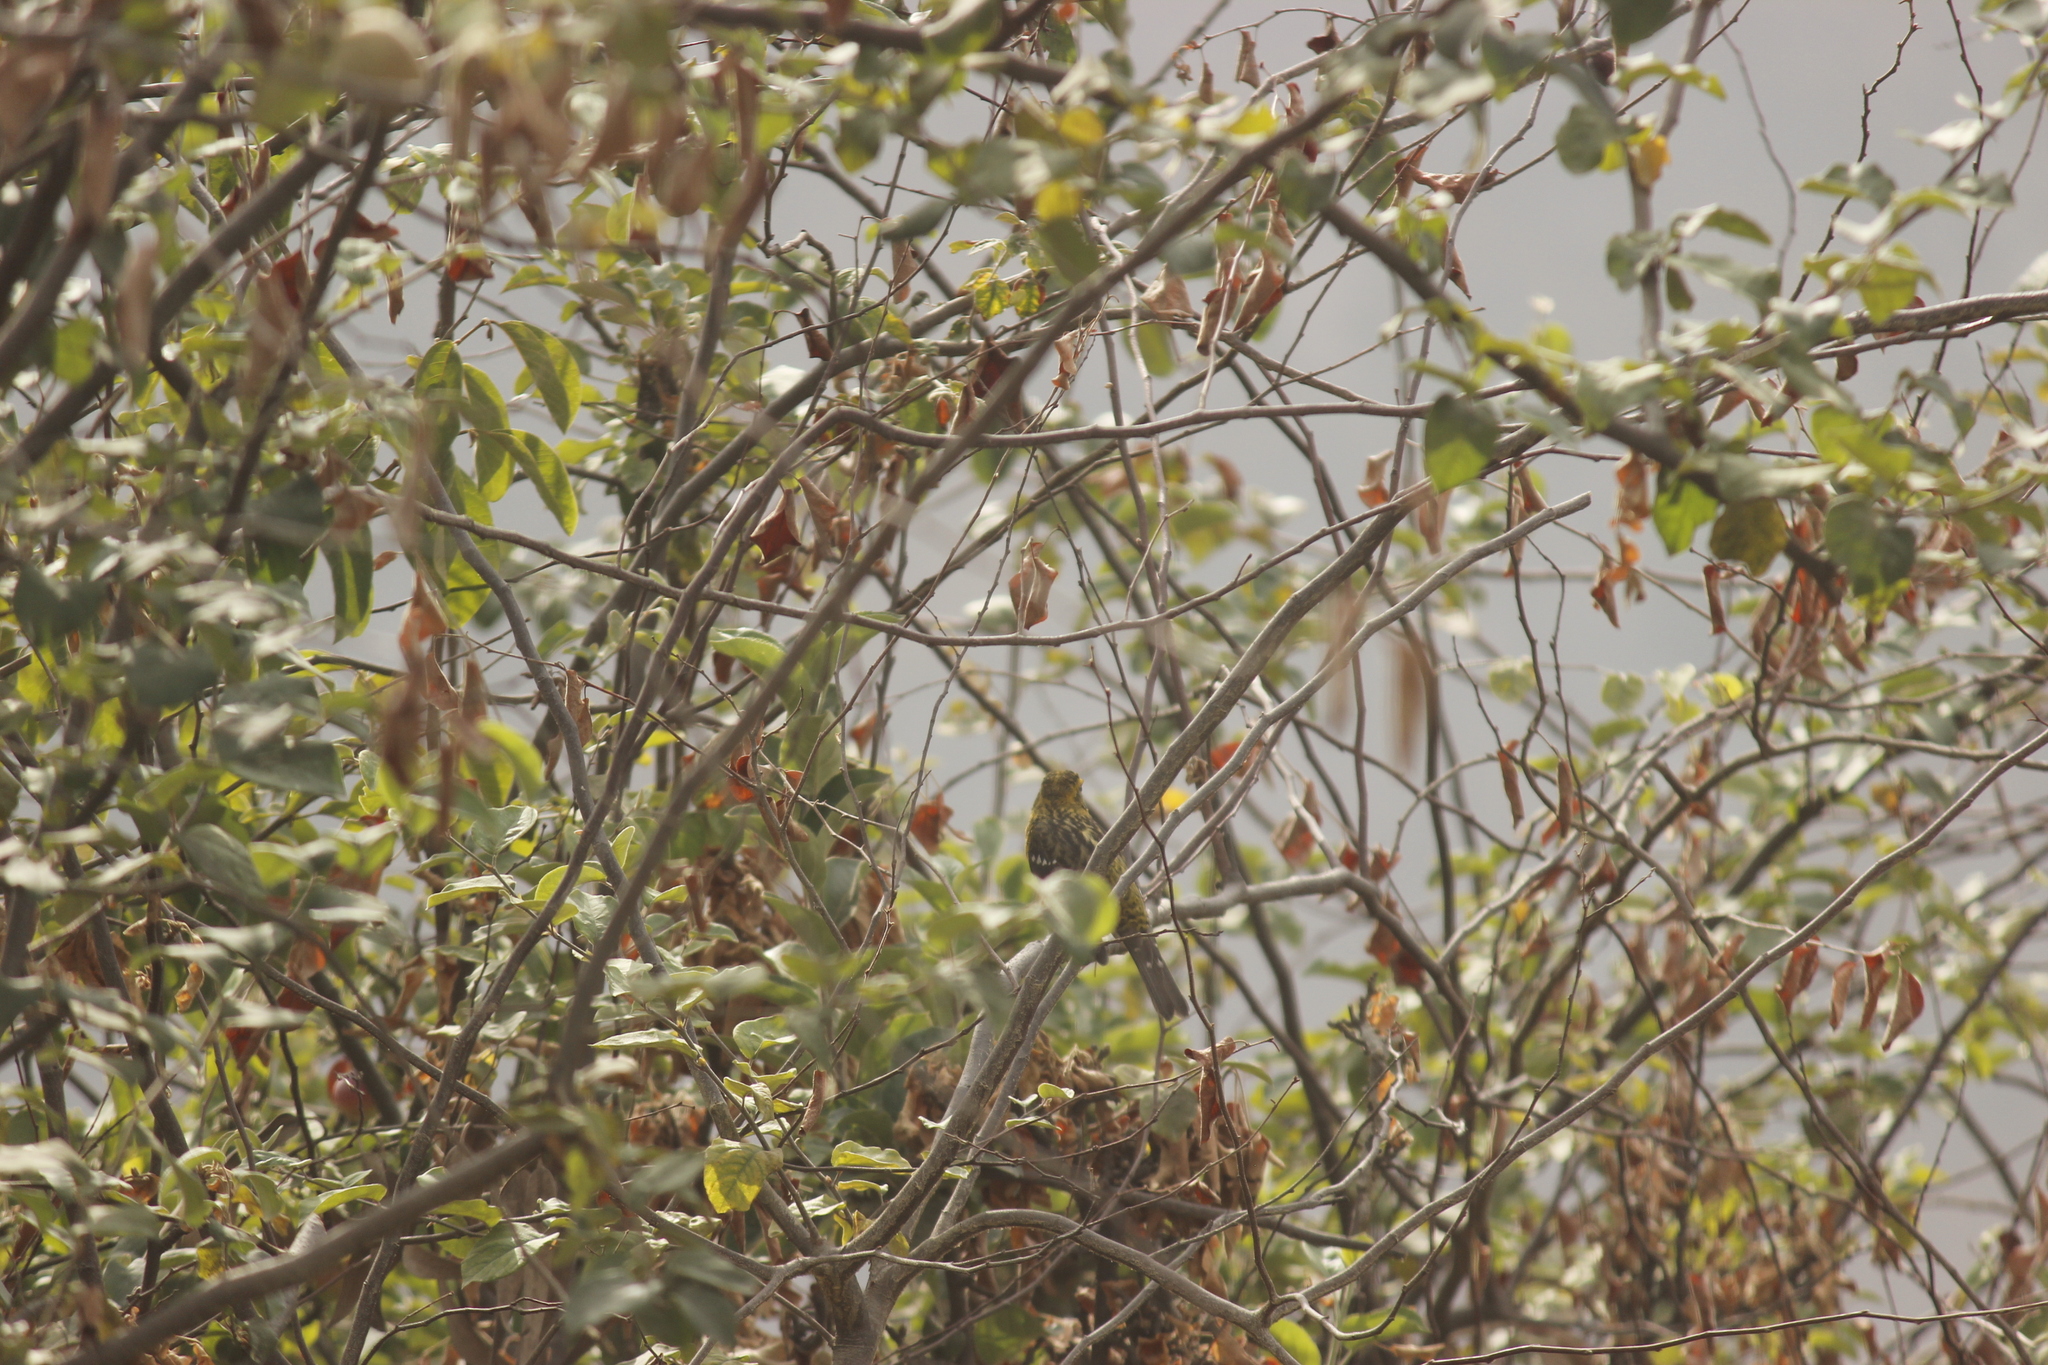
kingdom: Animalia
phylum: Chordata
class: Aves
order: Passeriformes
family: Cardinalidae
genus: Pheucticus
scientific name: Pheucticus chrysogaster
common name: Golden grosbeak
